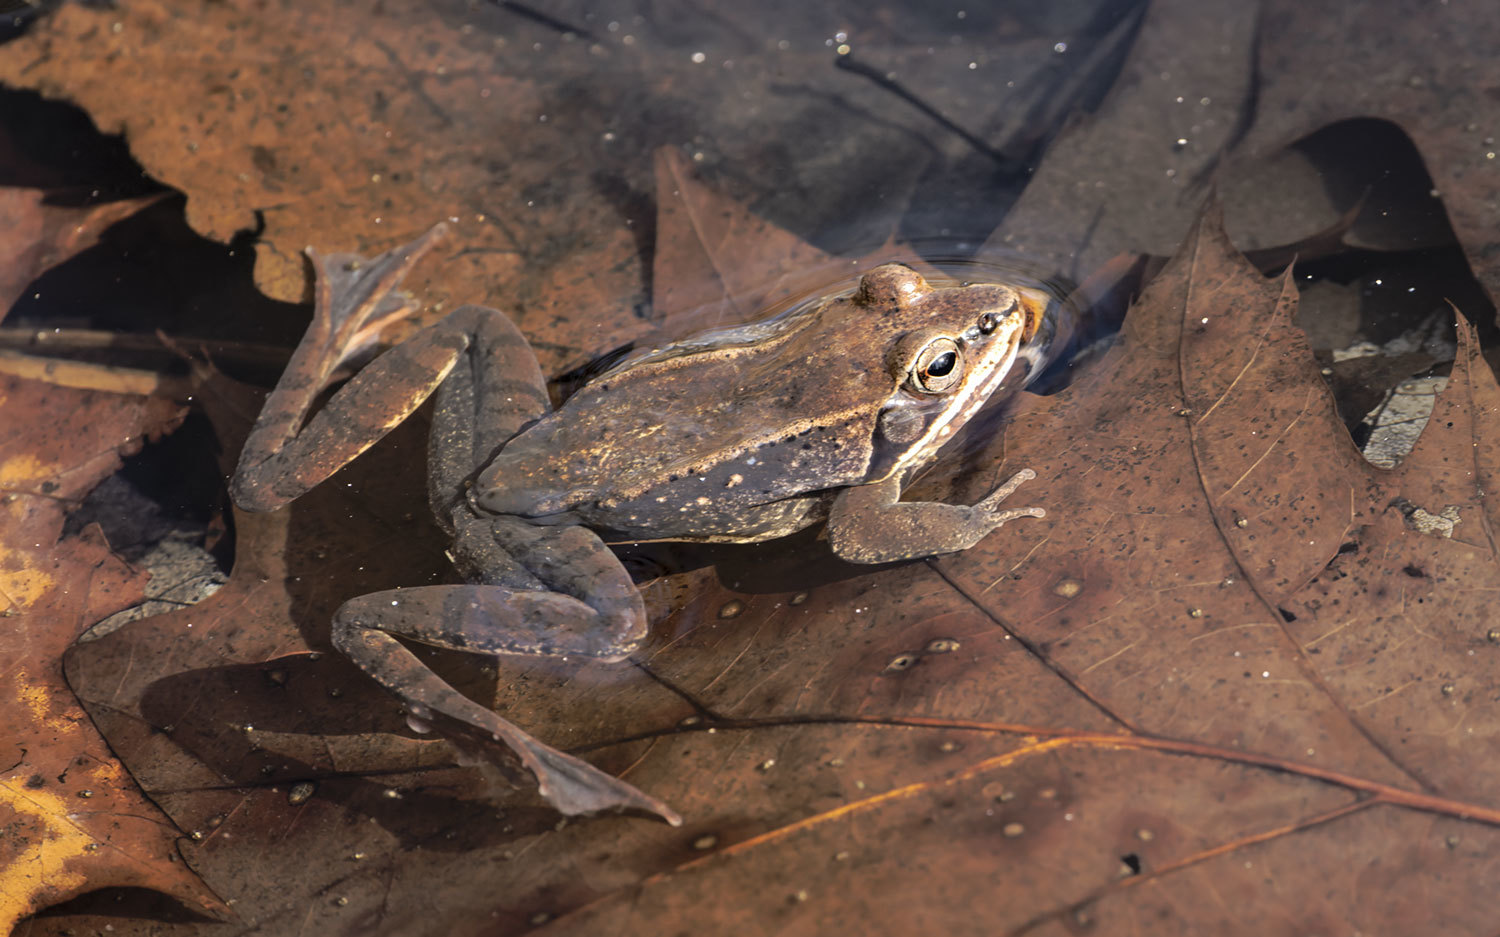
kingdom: Animalia
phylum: Chordata
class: Amphibia
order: Anura
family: Ranidae
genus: Lithobates
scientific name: Lithobates sylvaticus
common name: Wood frog
